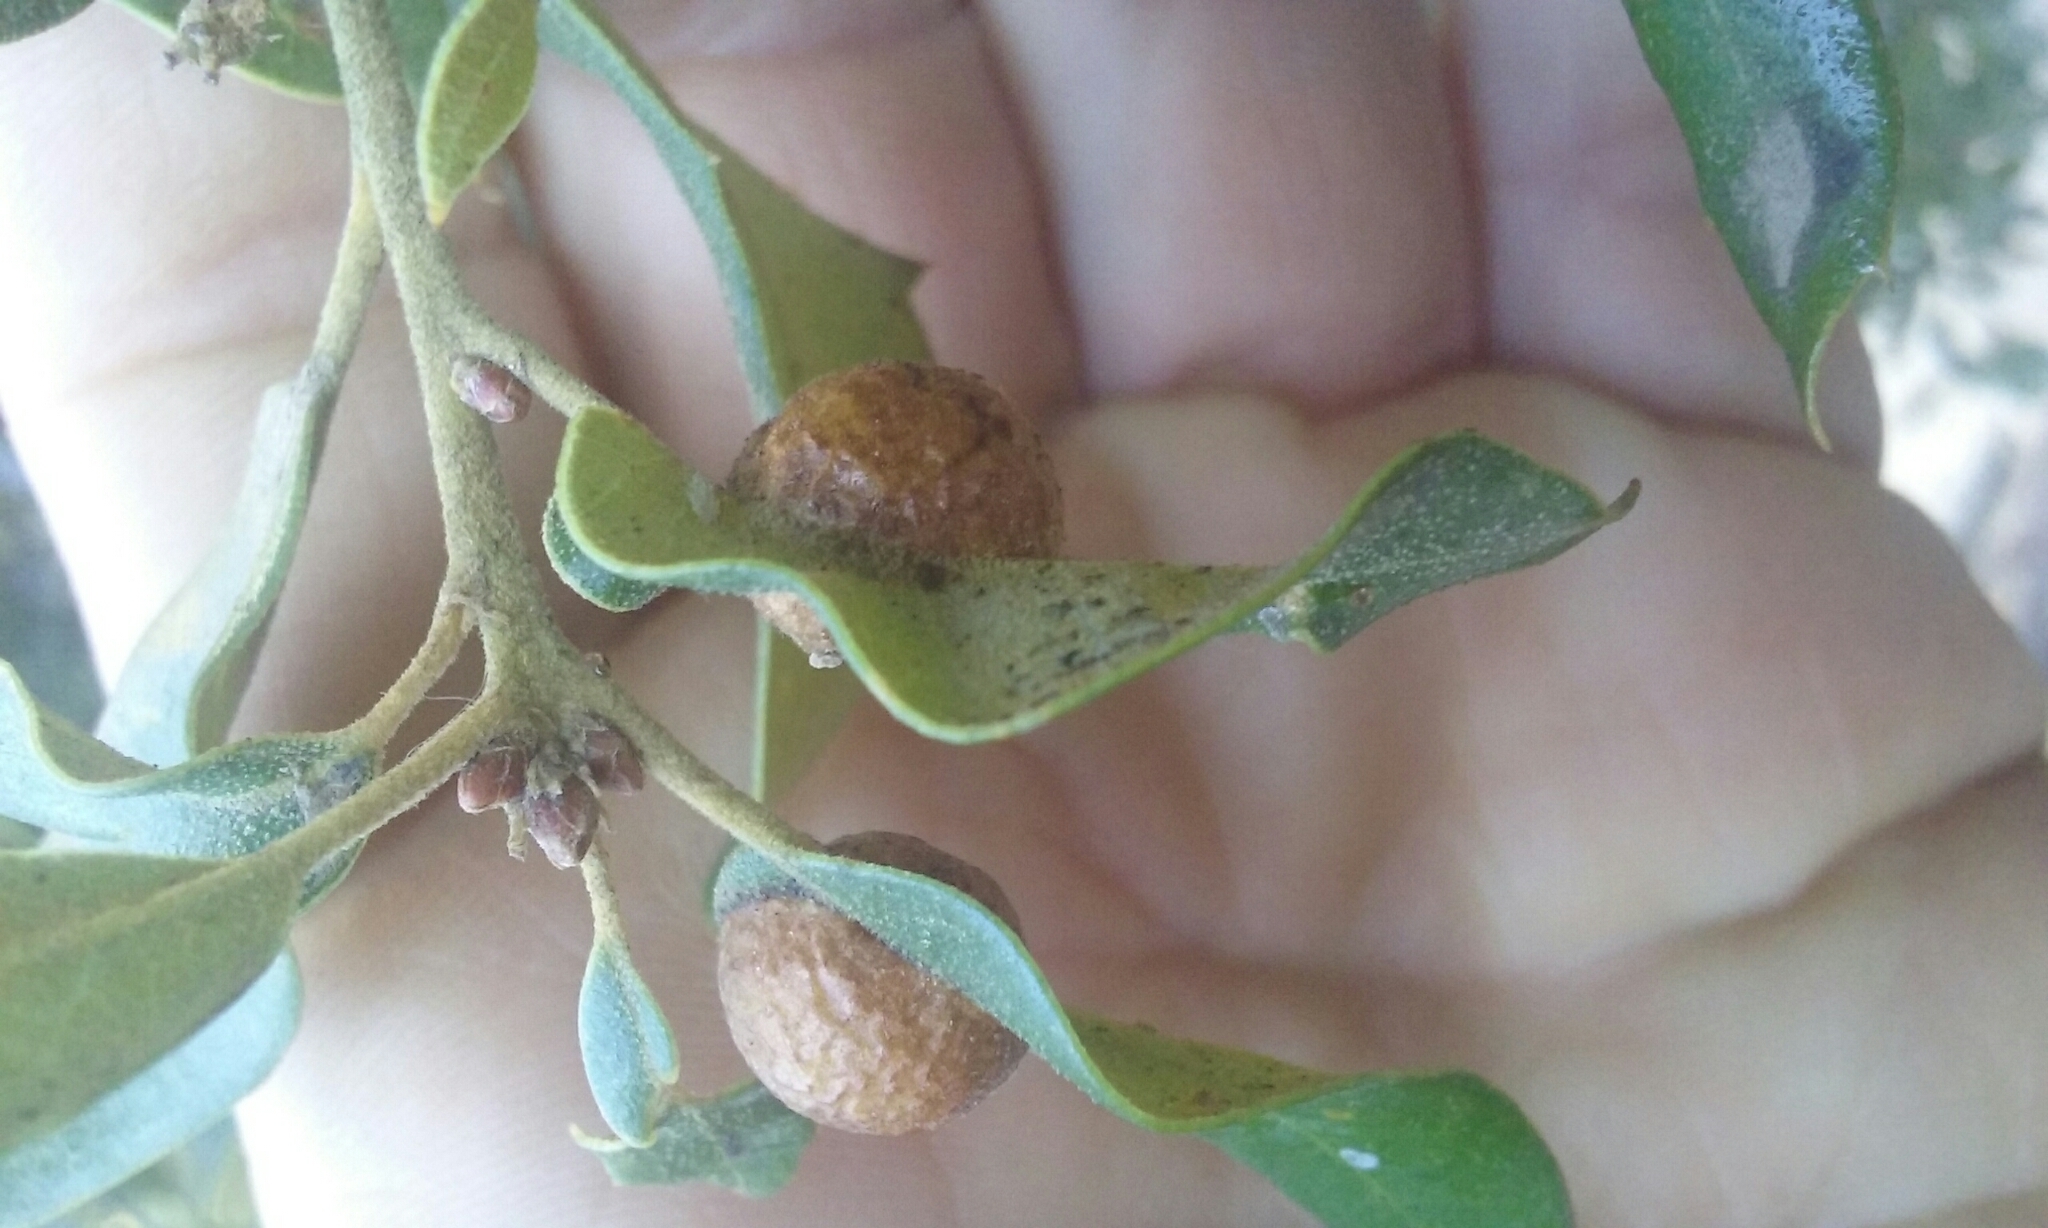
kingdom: Animalia
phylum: Arthropoda
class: Insecta
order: Hymenoptera
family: Cynipidae
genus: Heteroecus
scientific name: Heteroecus
